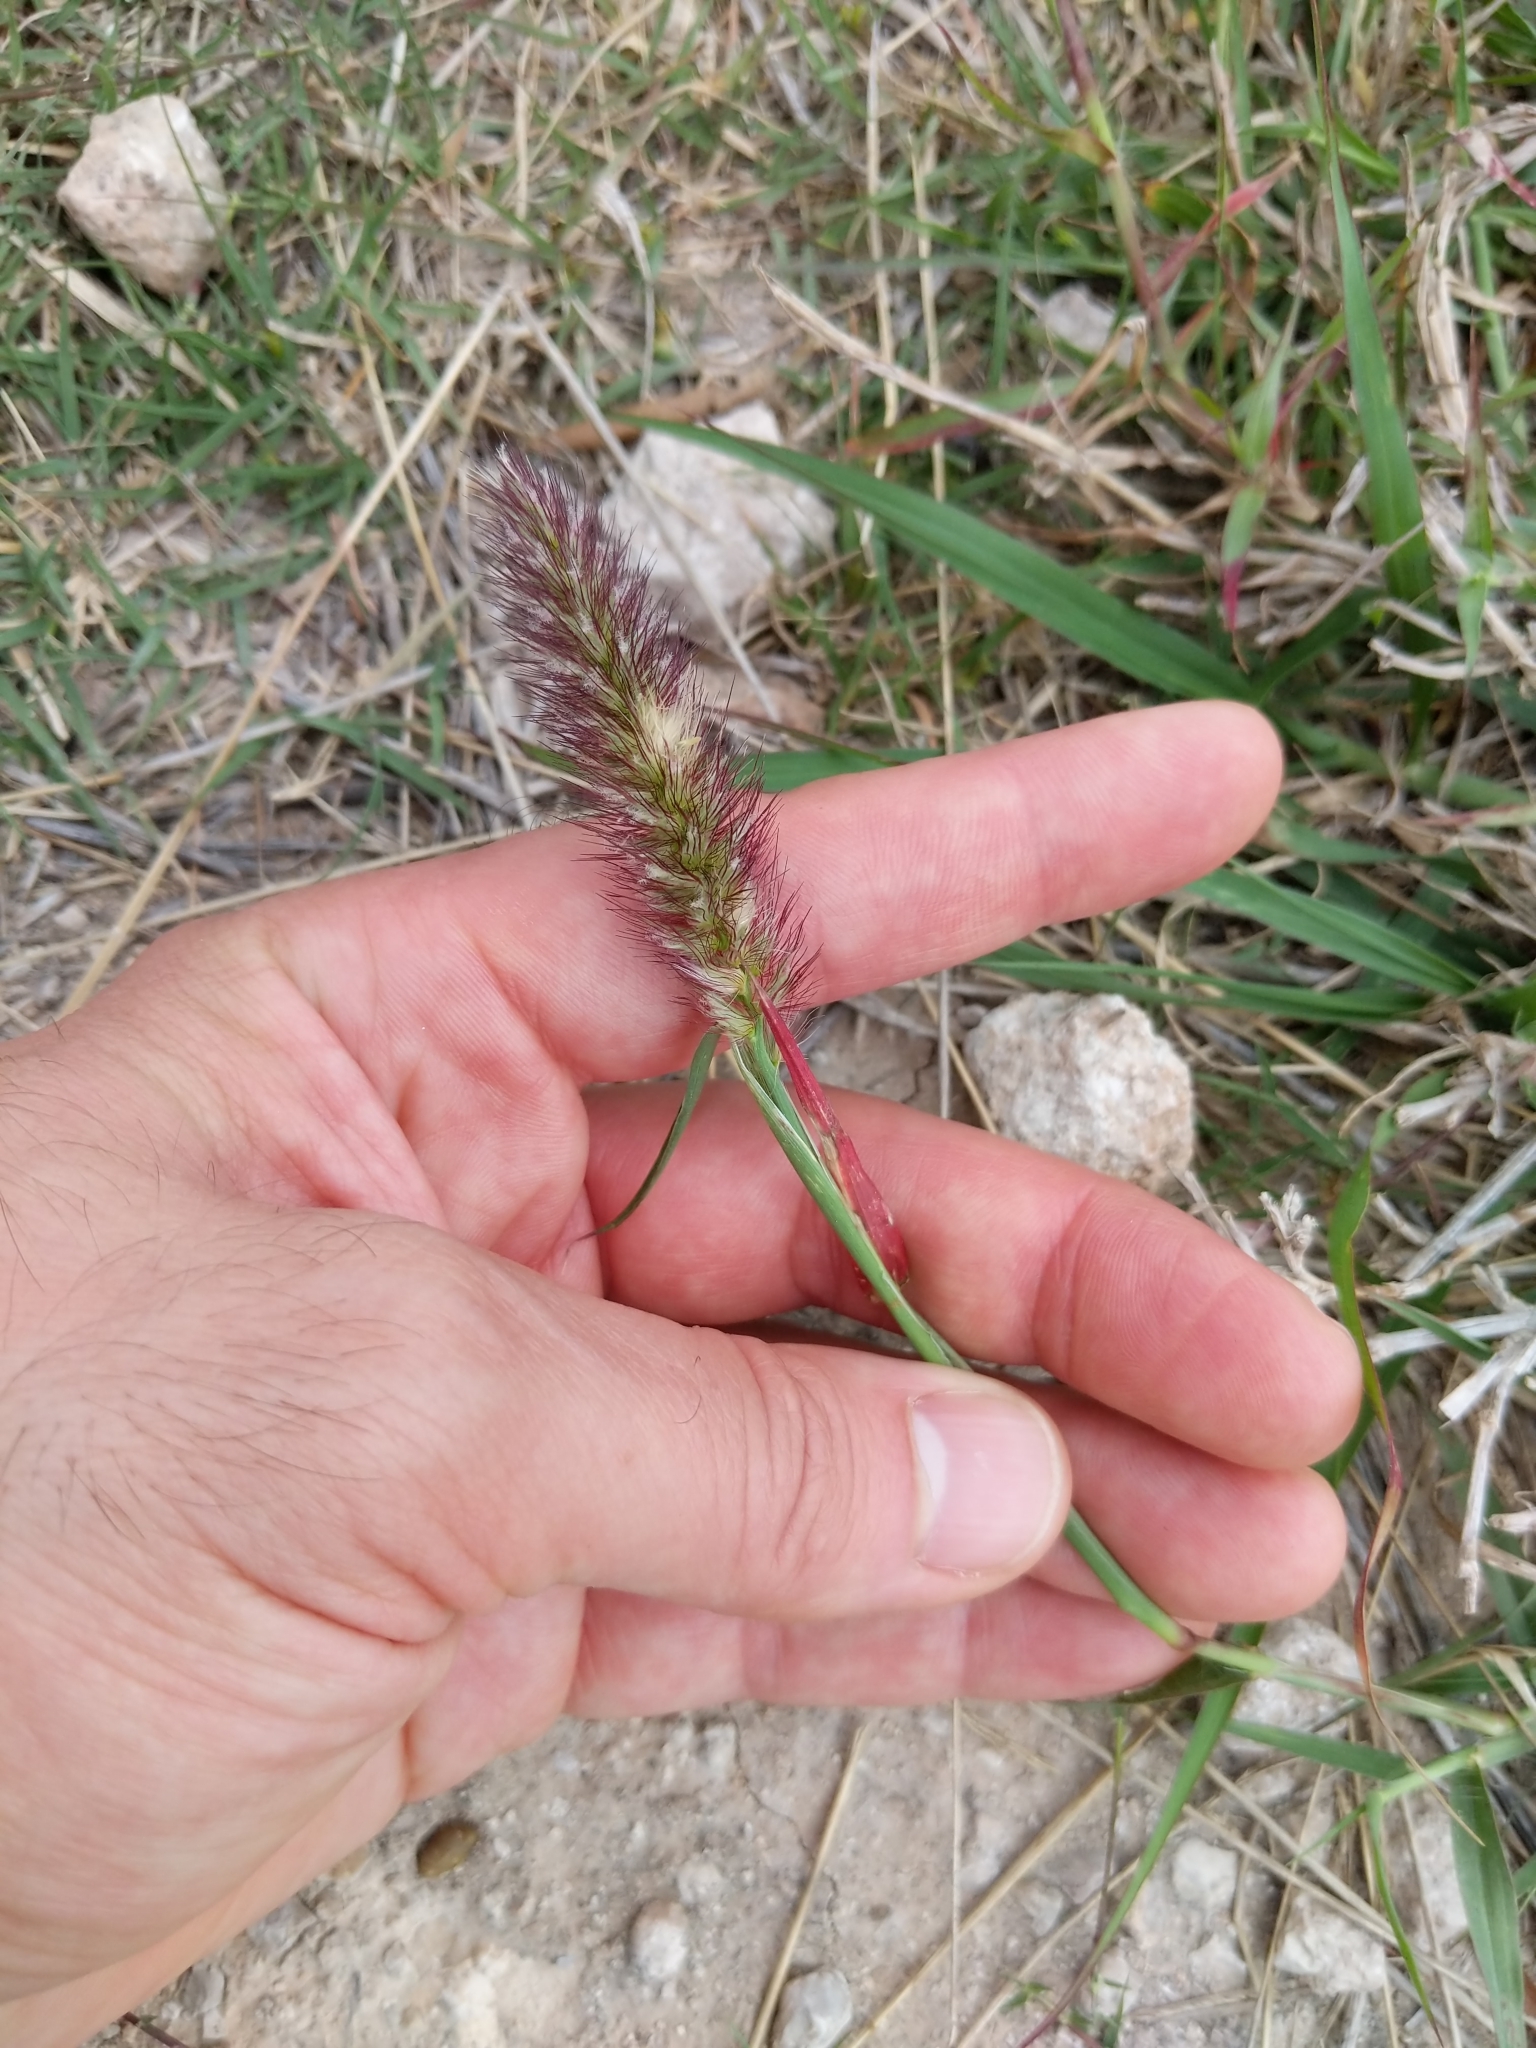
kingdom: Plantae
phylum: Tracheophyta
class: Liliopsida
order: Poales
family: Poaceae
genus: Cenchrus
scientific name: Cenchrus ciliaris
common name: Buffelgrass
